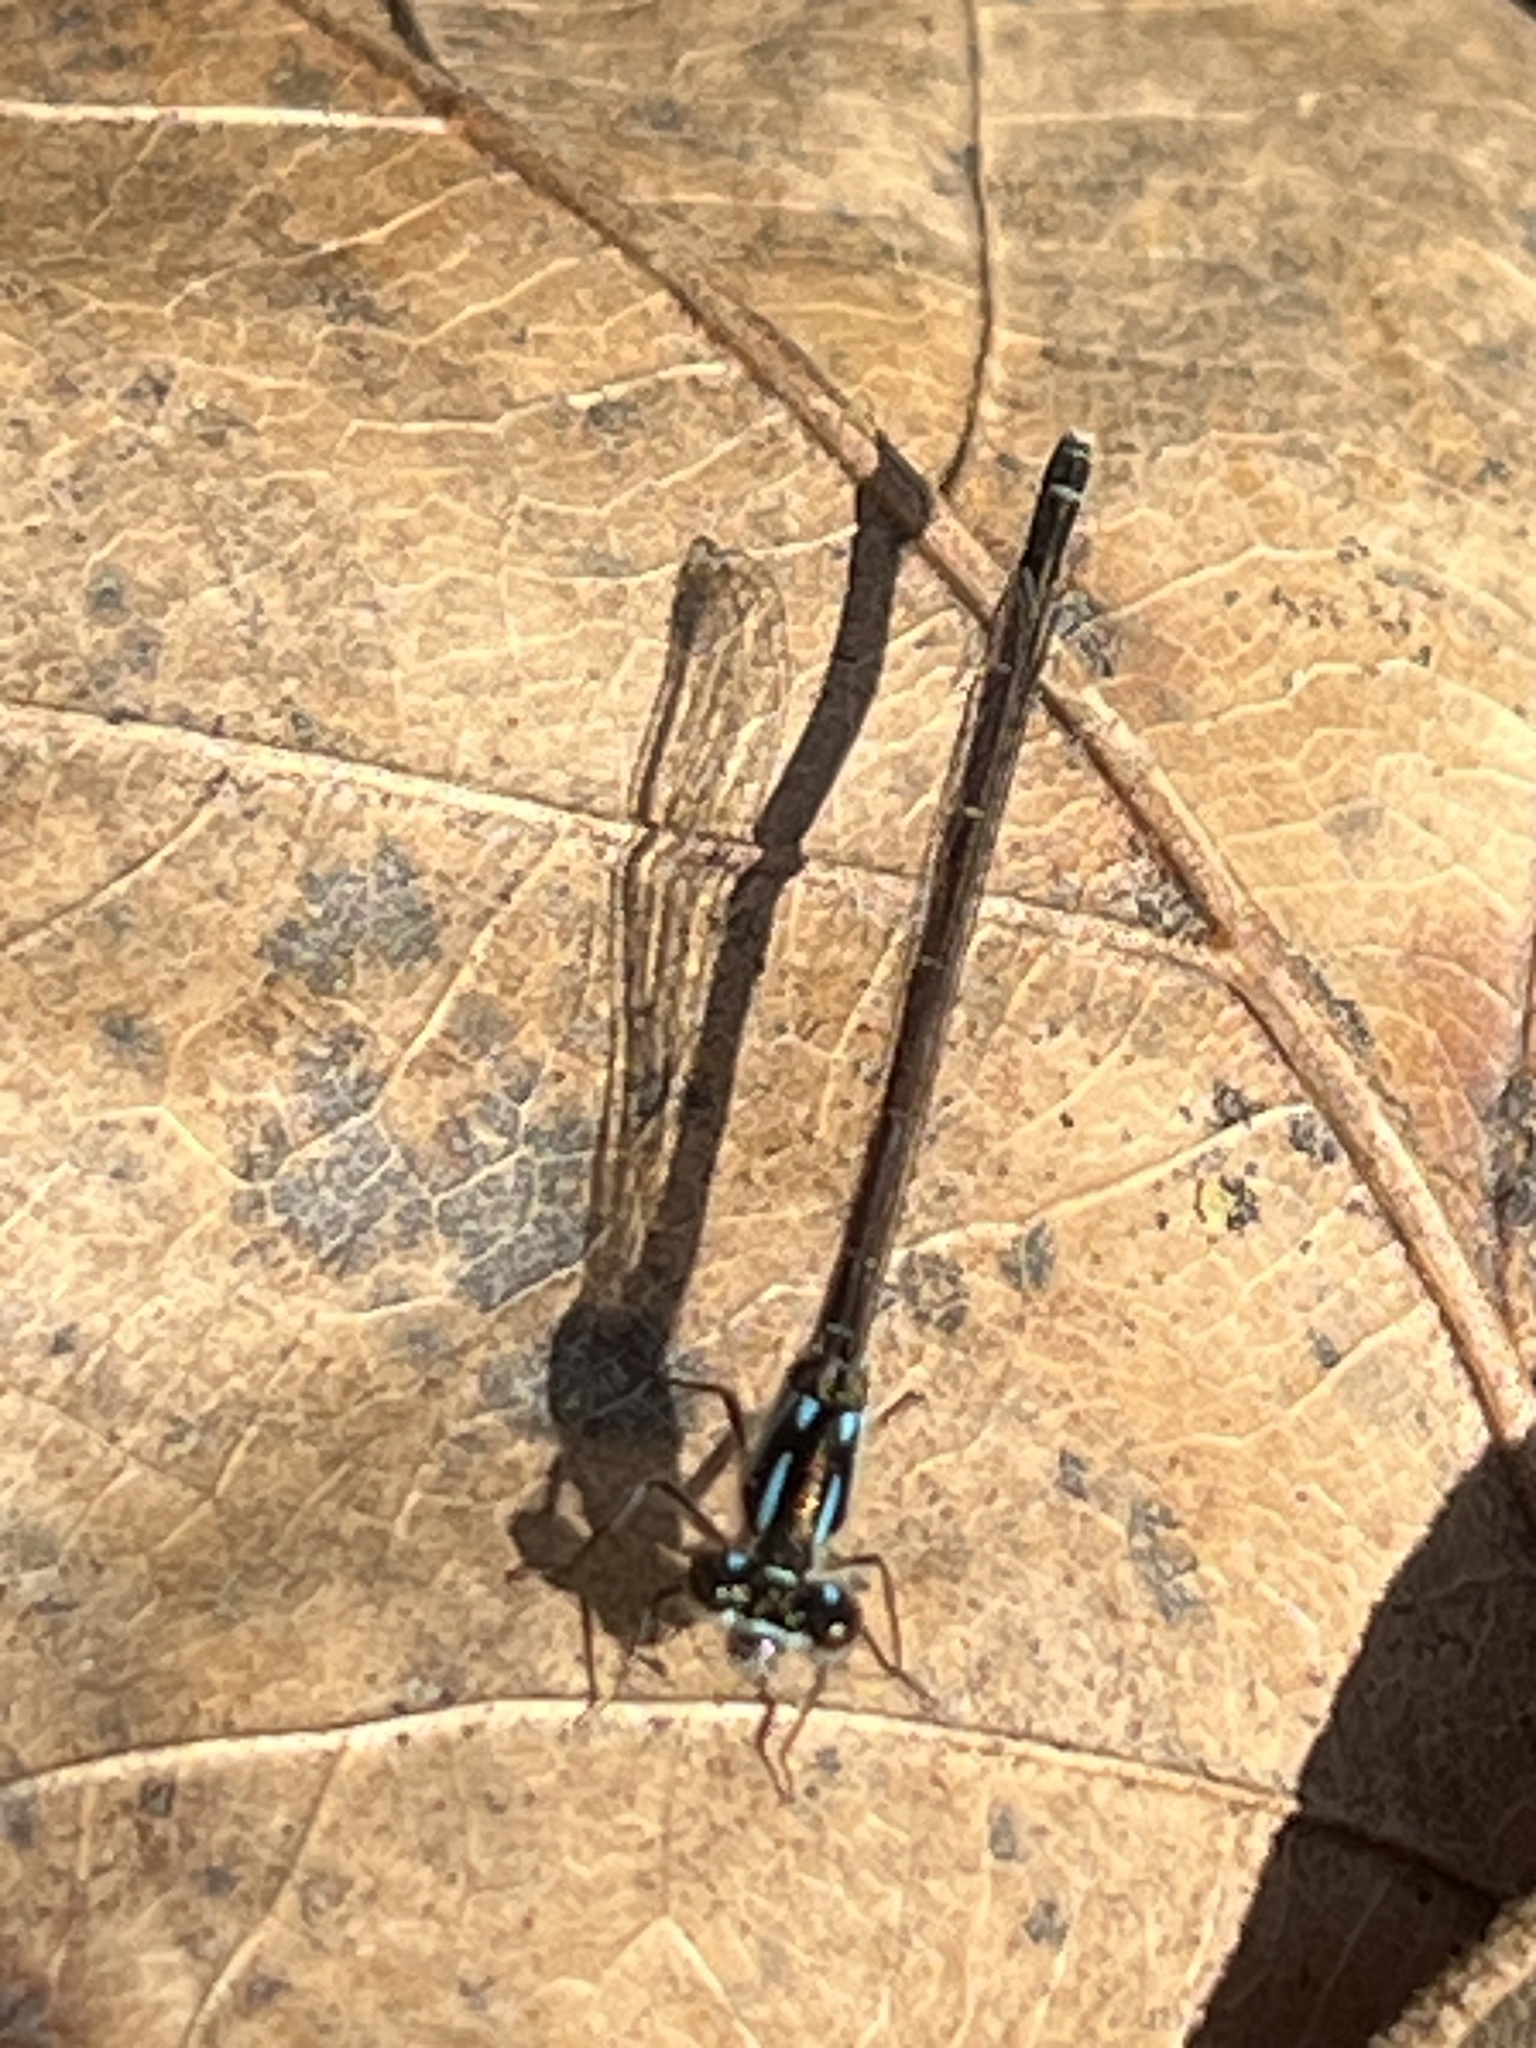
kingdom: Animalia
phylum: Arthropoda
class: Insecta
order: Odonata
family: Coenagrionidae
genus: Ischnura
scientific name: Ischnura posita
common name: Fragile forktail
